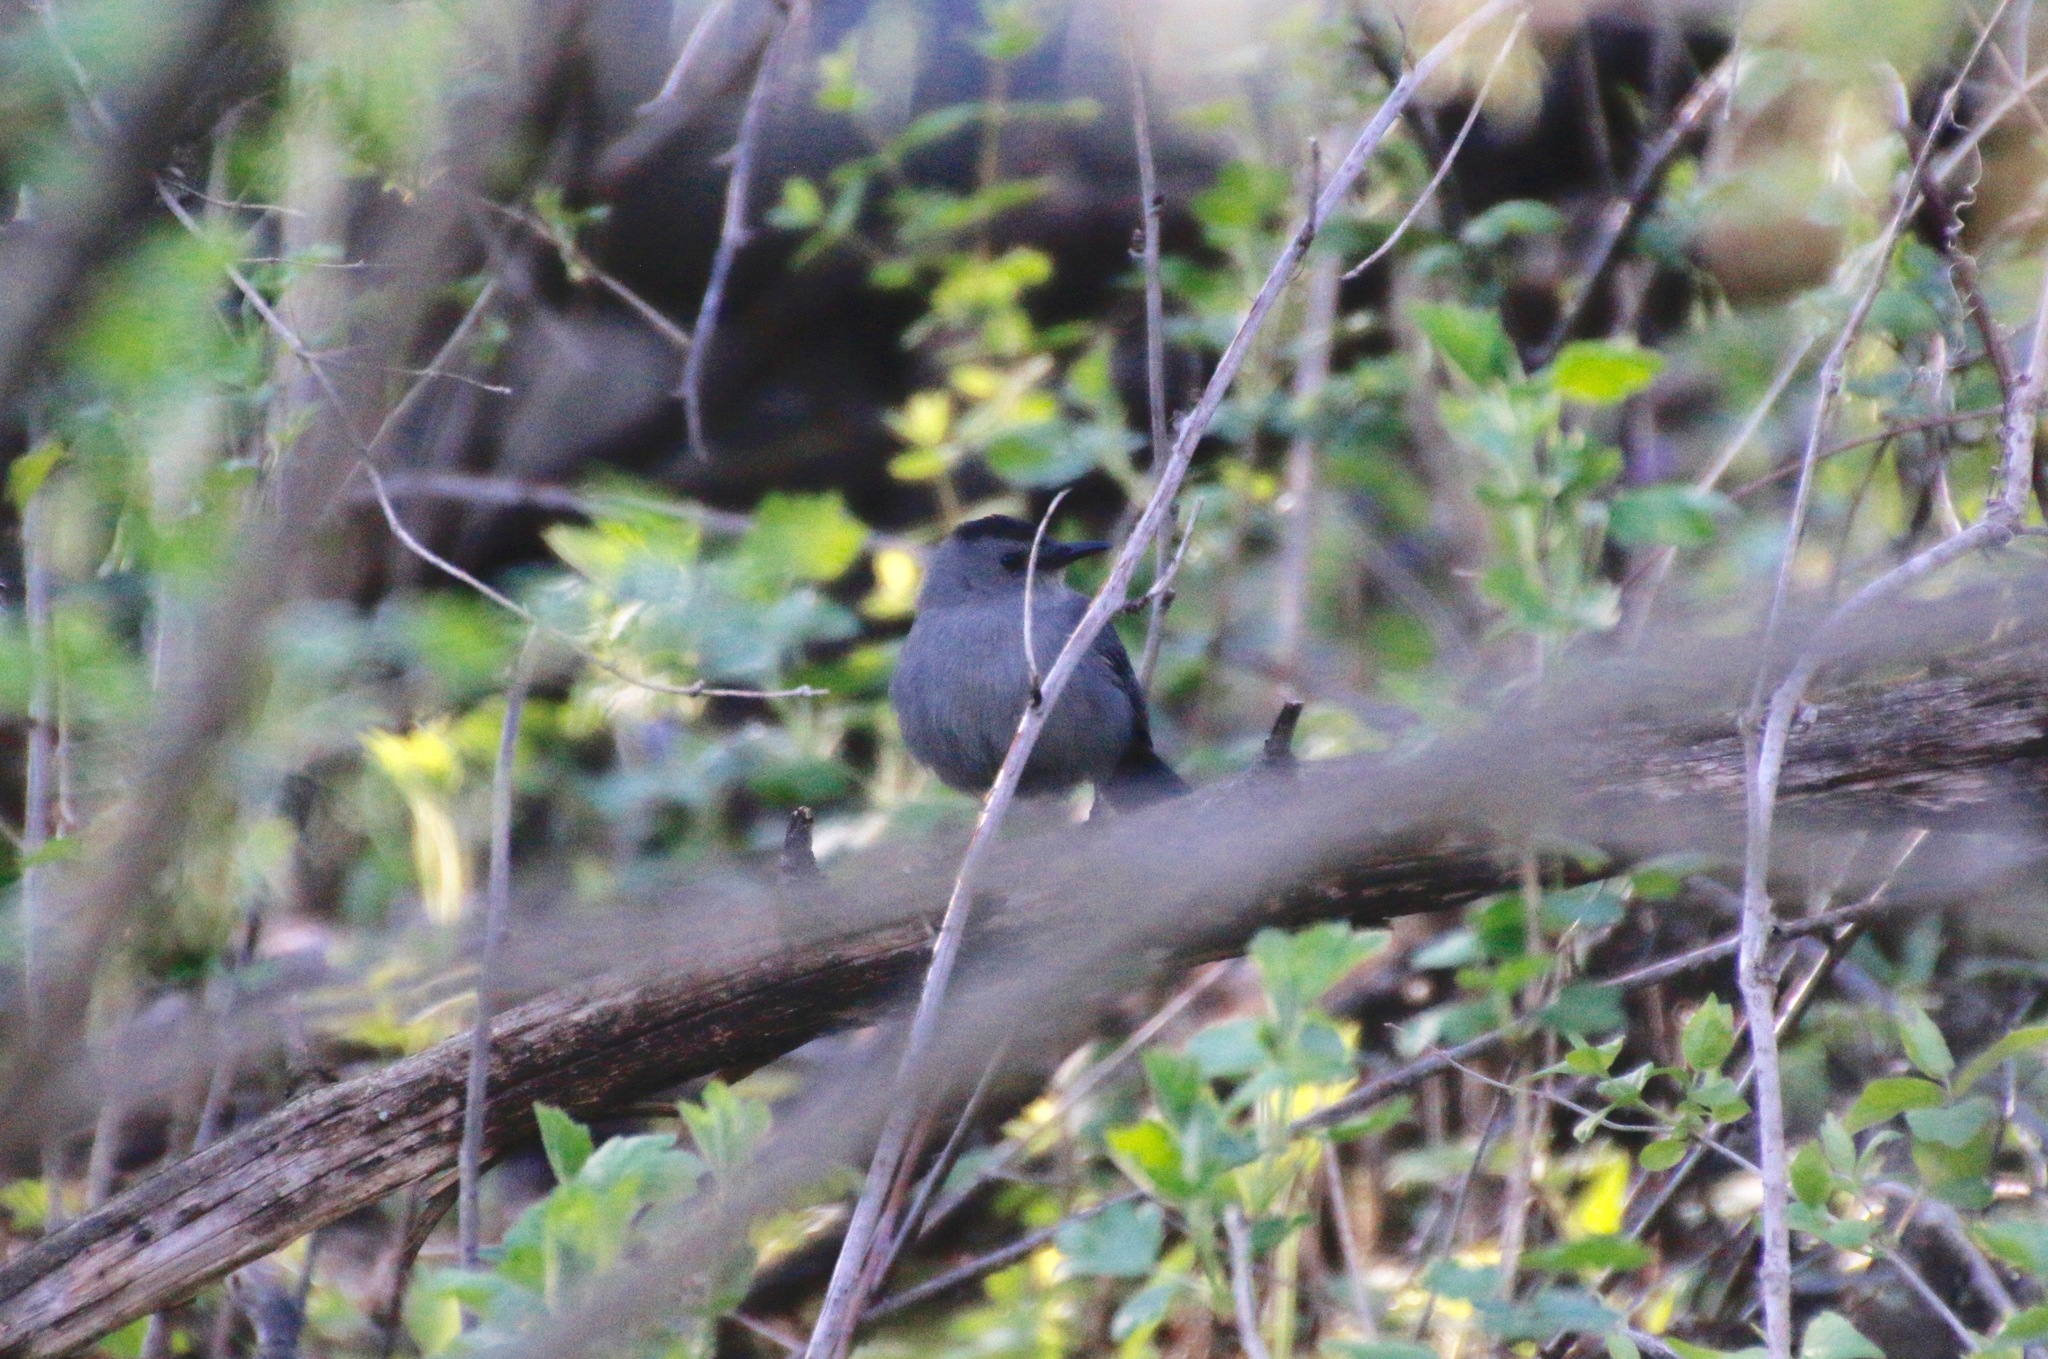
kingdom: Animalia
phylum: Chordata
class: Aves
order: Passeriformes
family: Mimidae
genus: Dumetella
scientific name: Dumetella carolinensis
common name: Gray catbird
